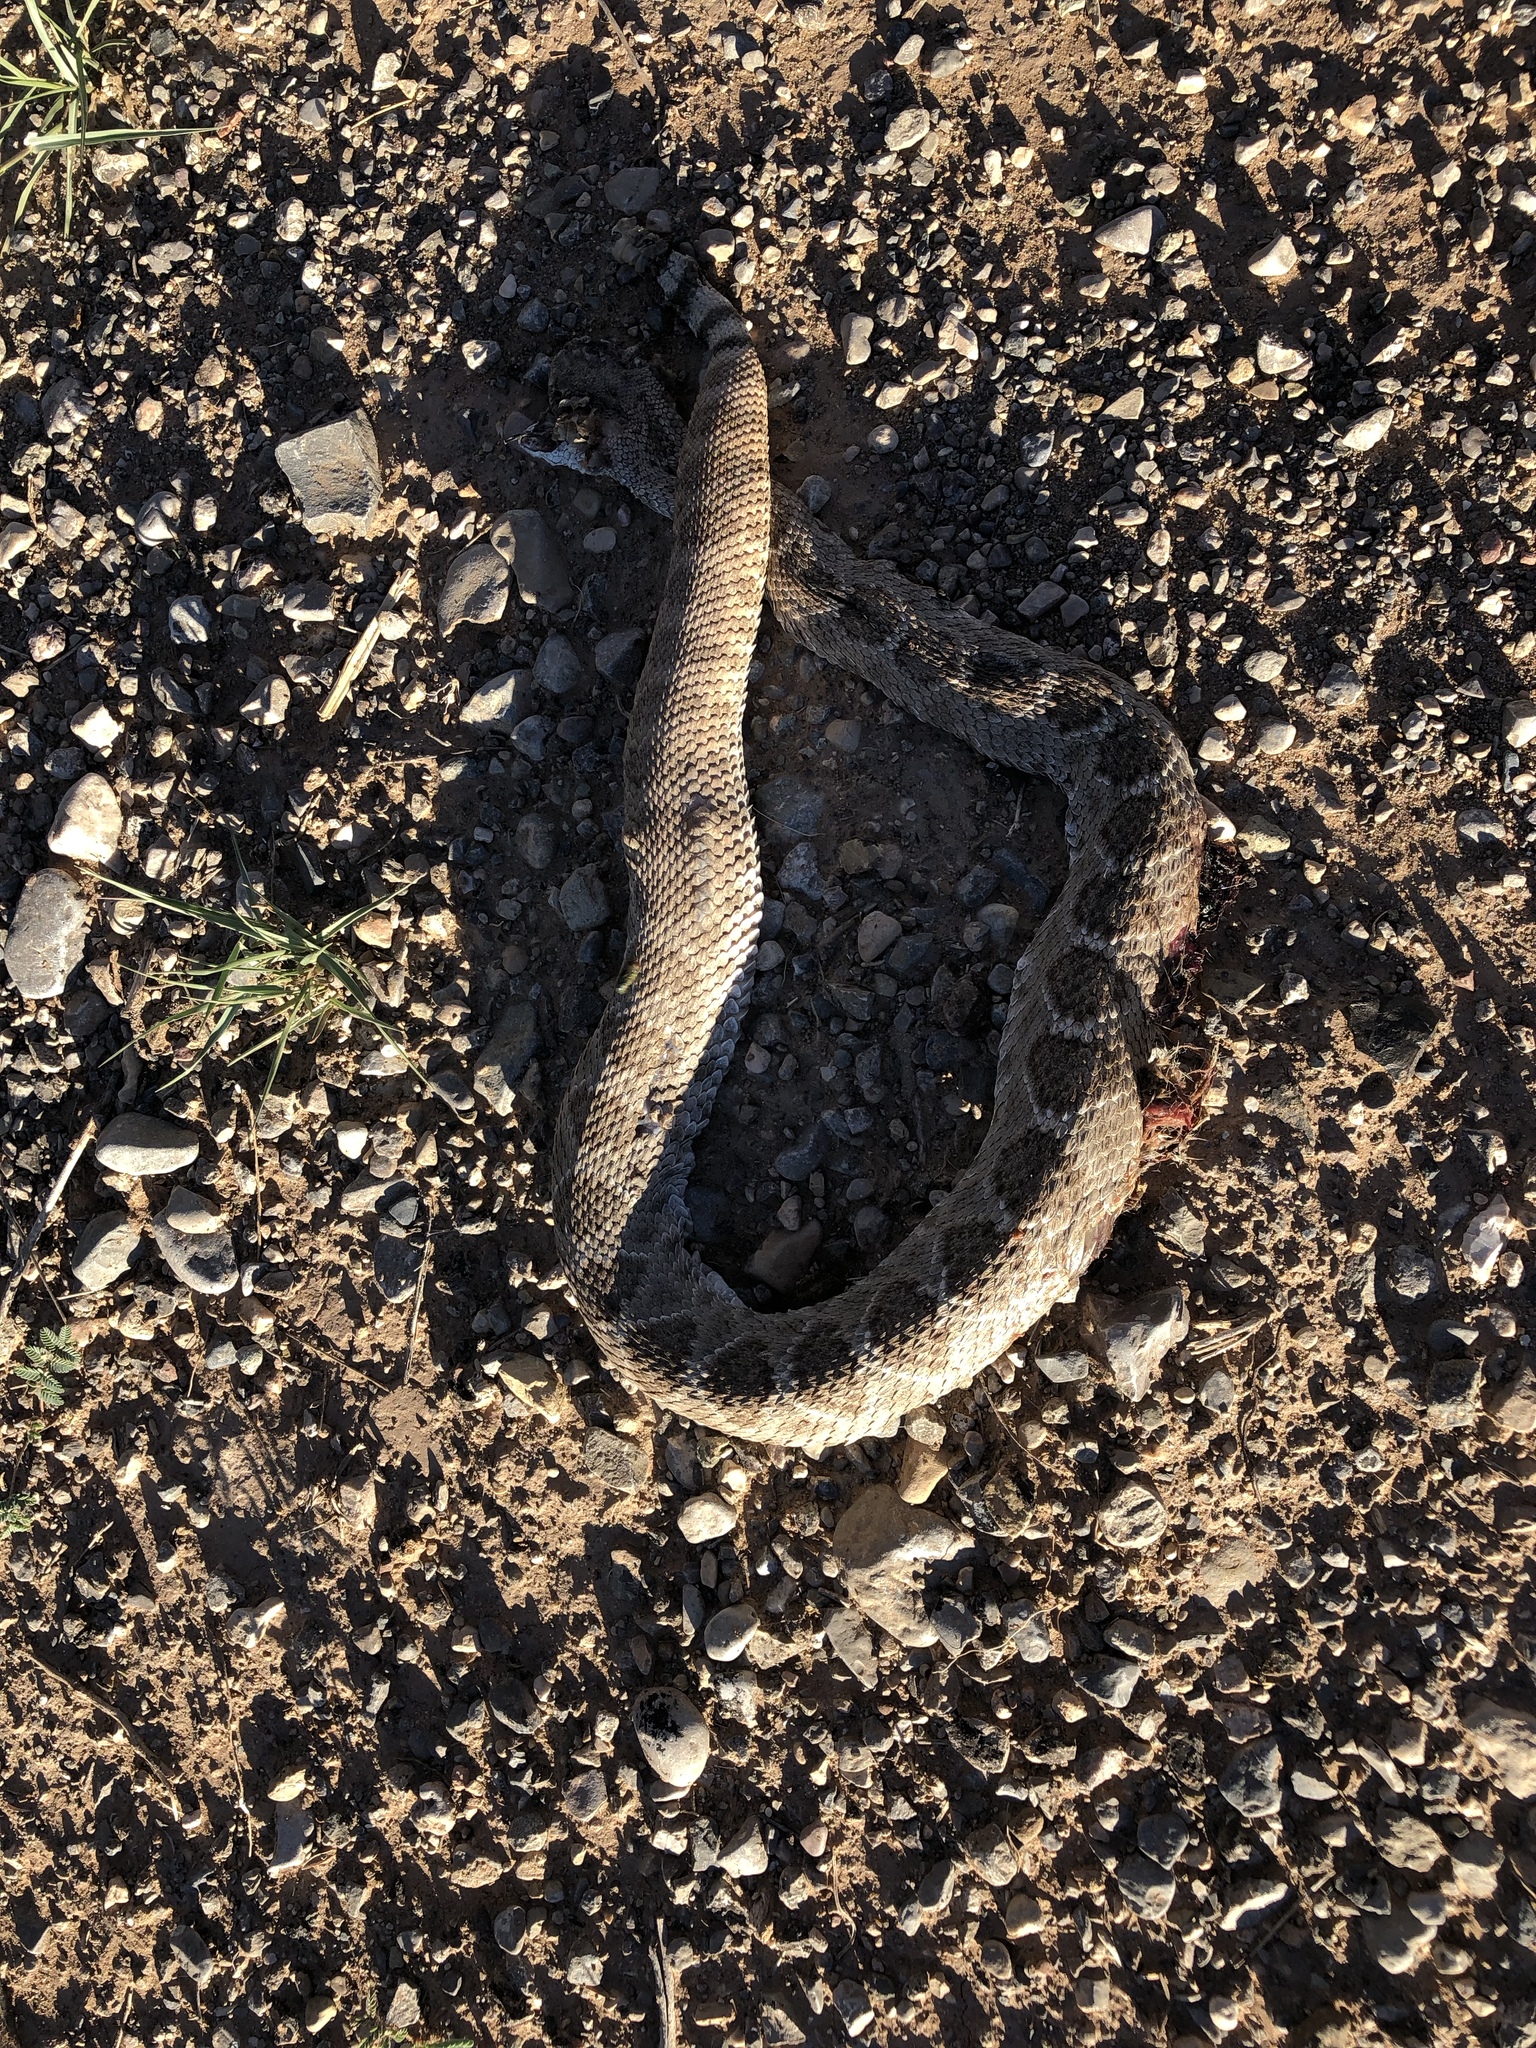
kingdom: Animalia
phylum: Chordata
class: Squamata
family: Viperidae
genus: Crotalus
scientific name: Crotalus atrox
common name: Western diamond-backed rattlesnake
